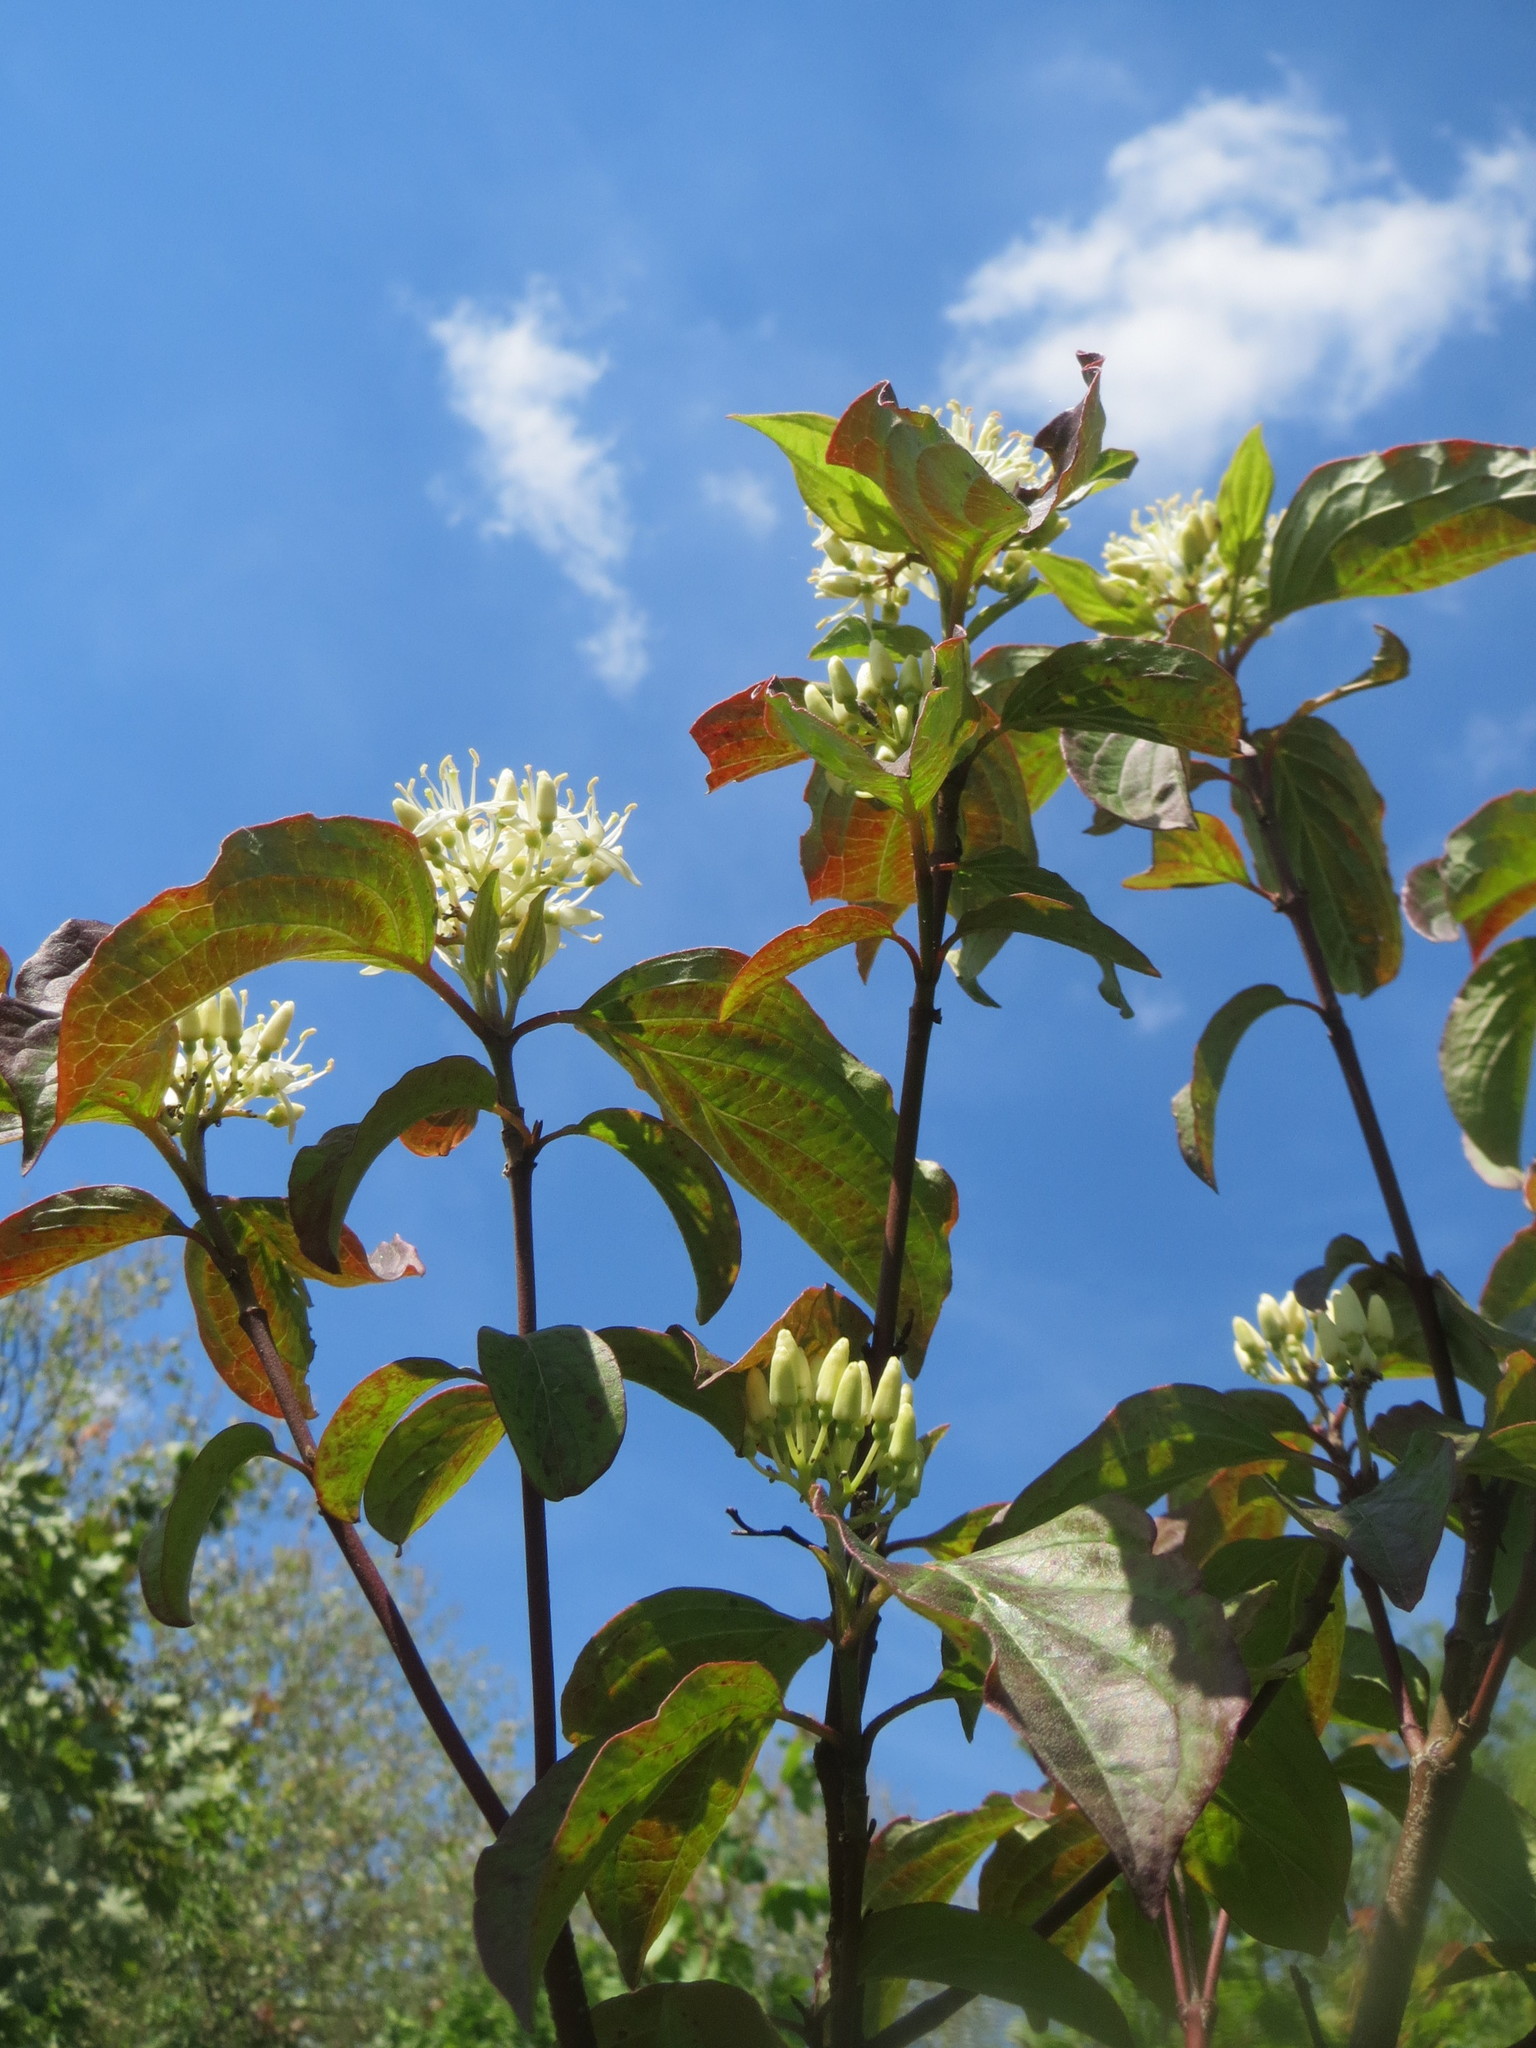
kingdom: Plantae
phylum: Tracheophyta
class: Magnoliopsida
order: Cornales
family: Cornaceae
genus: Cornus
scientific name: Cornus sanguinea
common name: Dogwood
